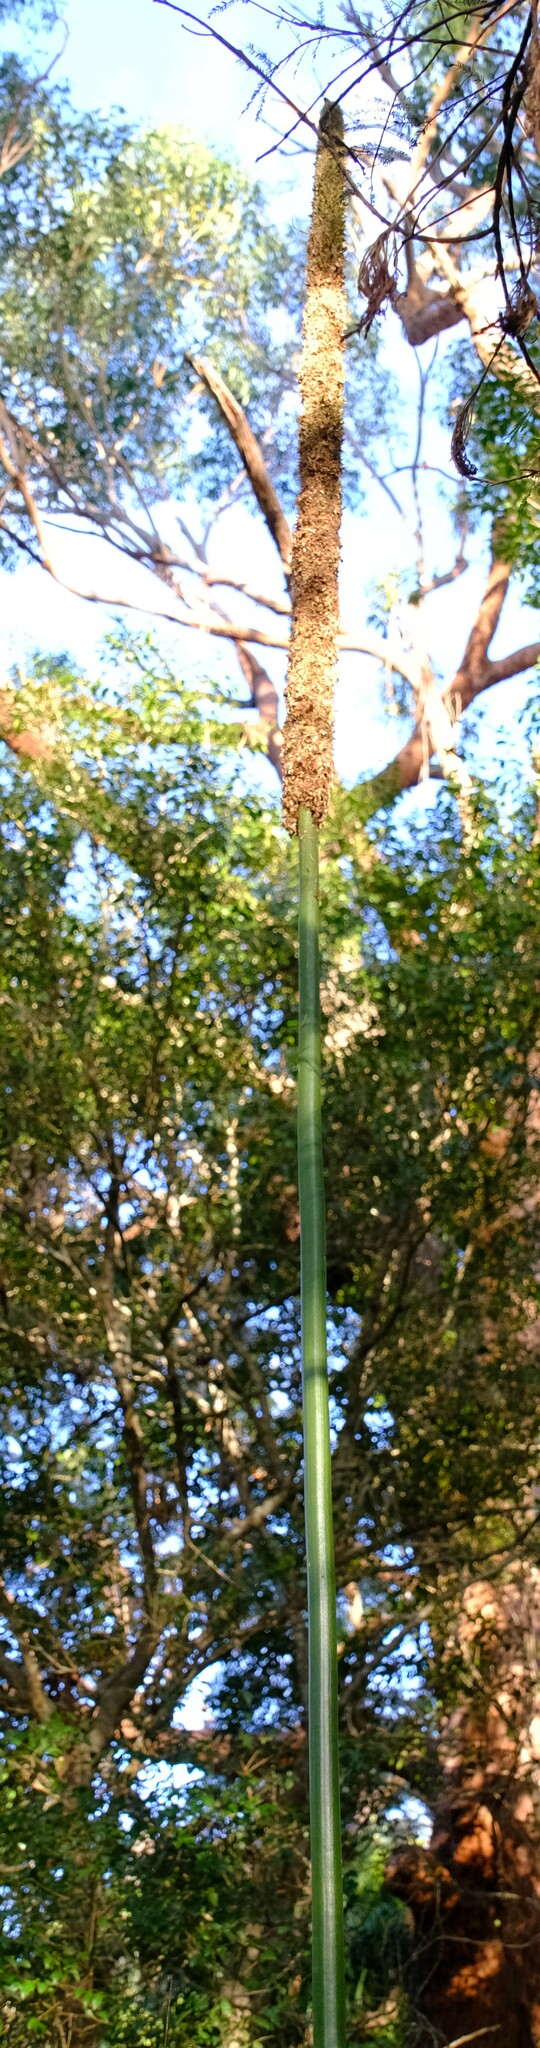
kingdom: Plantae
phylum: Tracheophyta
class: Liliopsida
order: Asparagales
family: Asphodelaceae
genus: Xanthorrhoea
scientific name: Xanthorrhoea arborea
